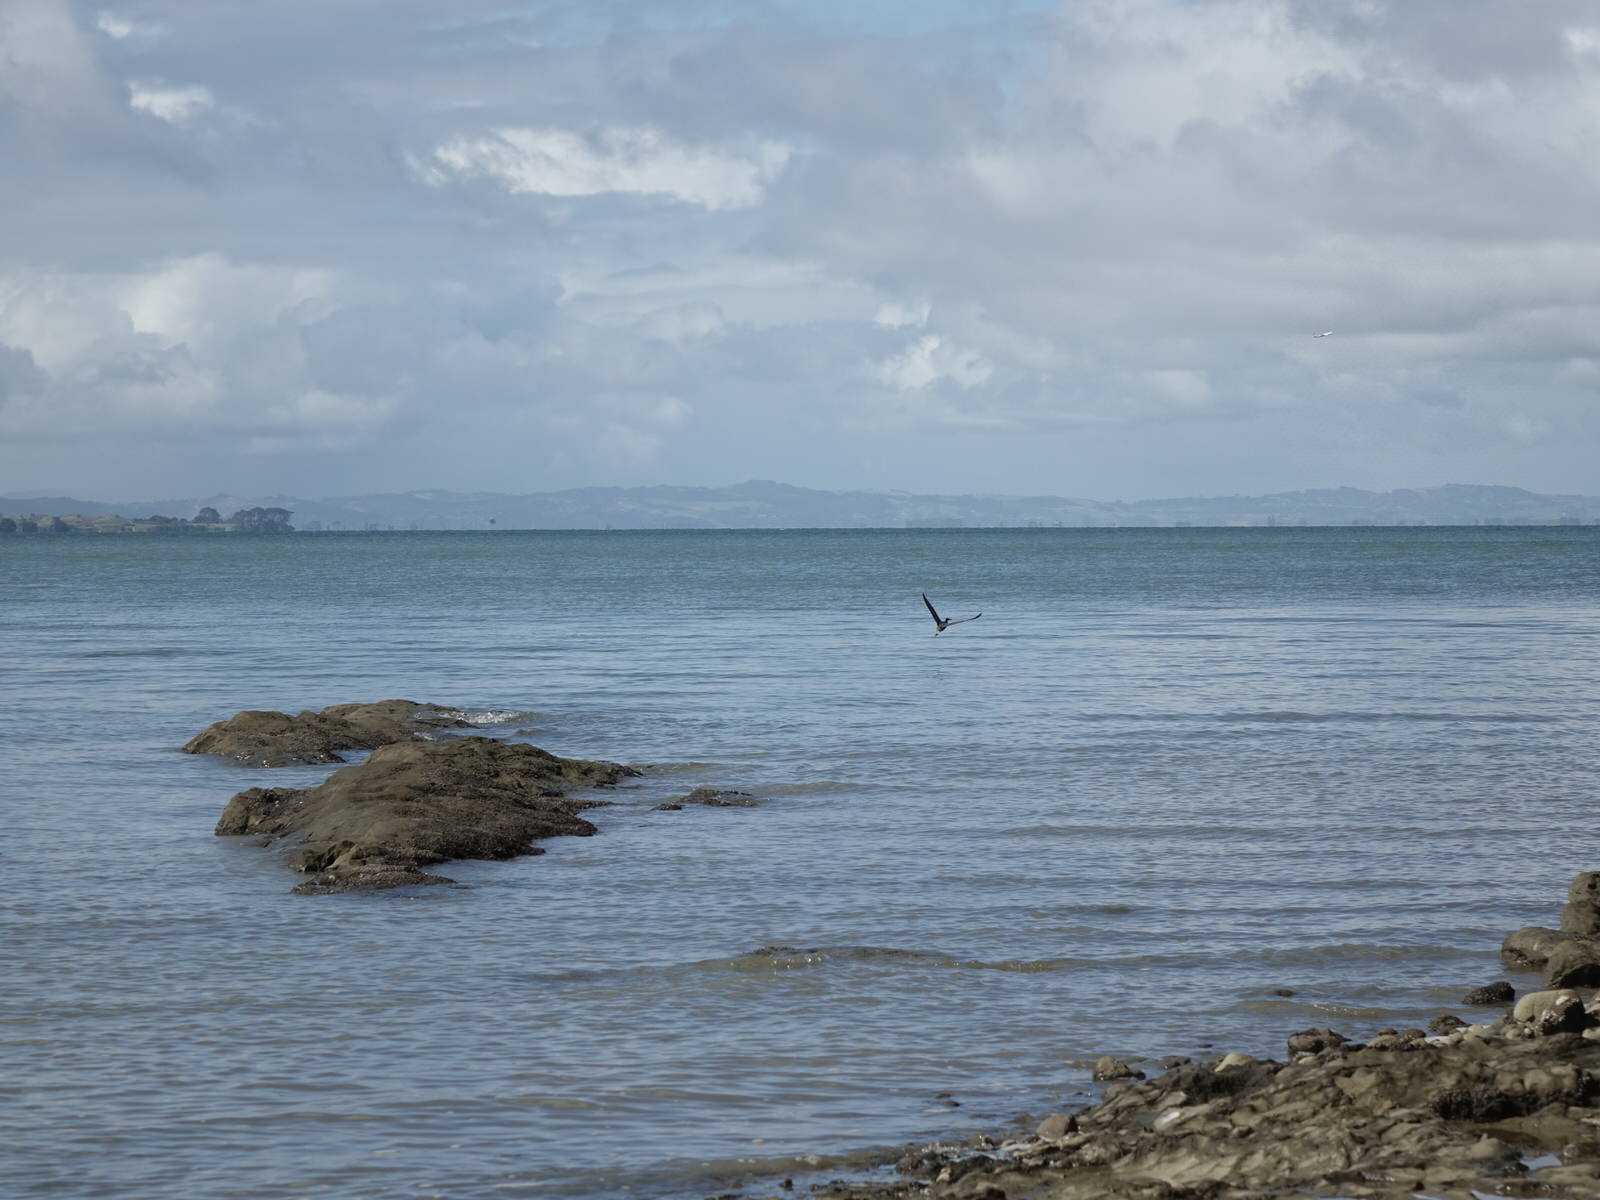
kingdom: Animalia
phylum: Chordata
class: Aves
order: Pelecaniformes
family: Ardeidae
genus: Egretta
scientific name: Egretta sacra
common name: Pacific reef heron
